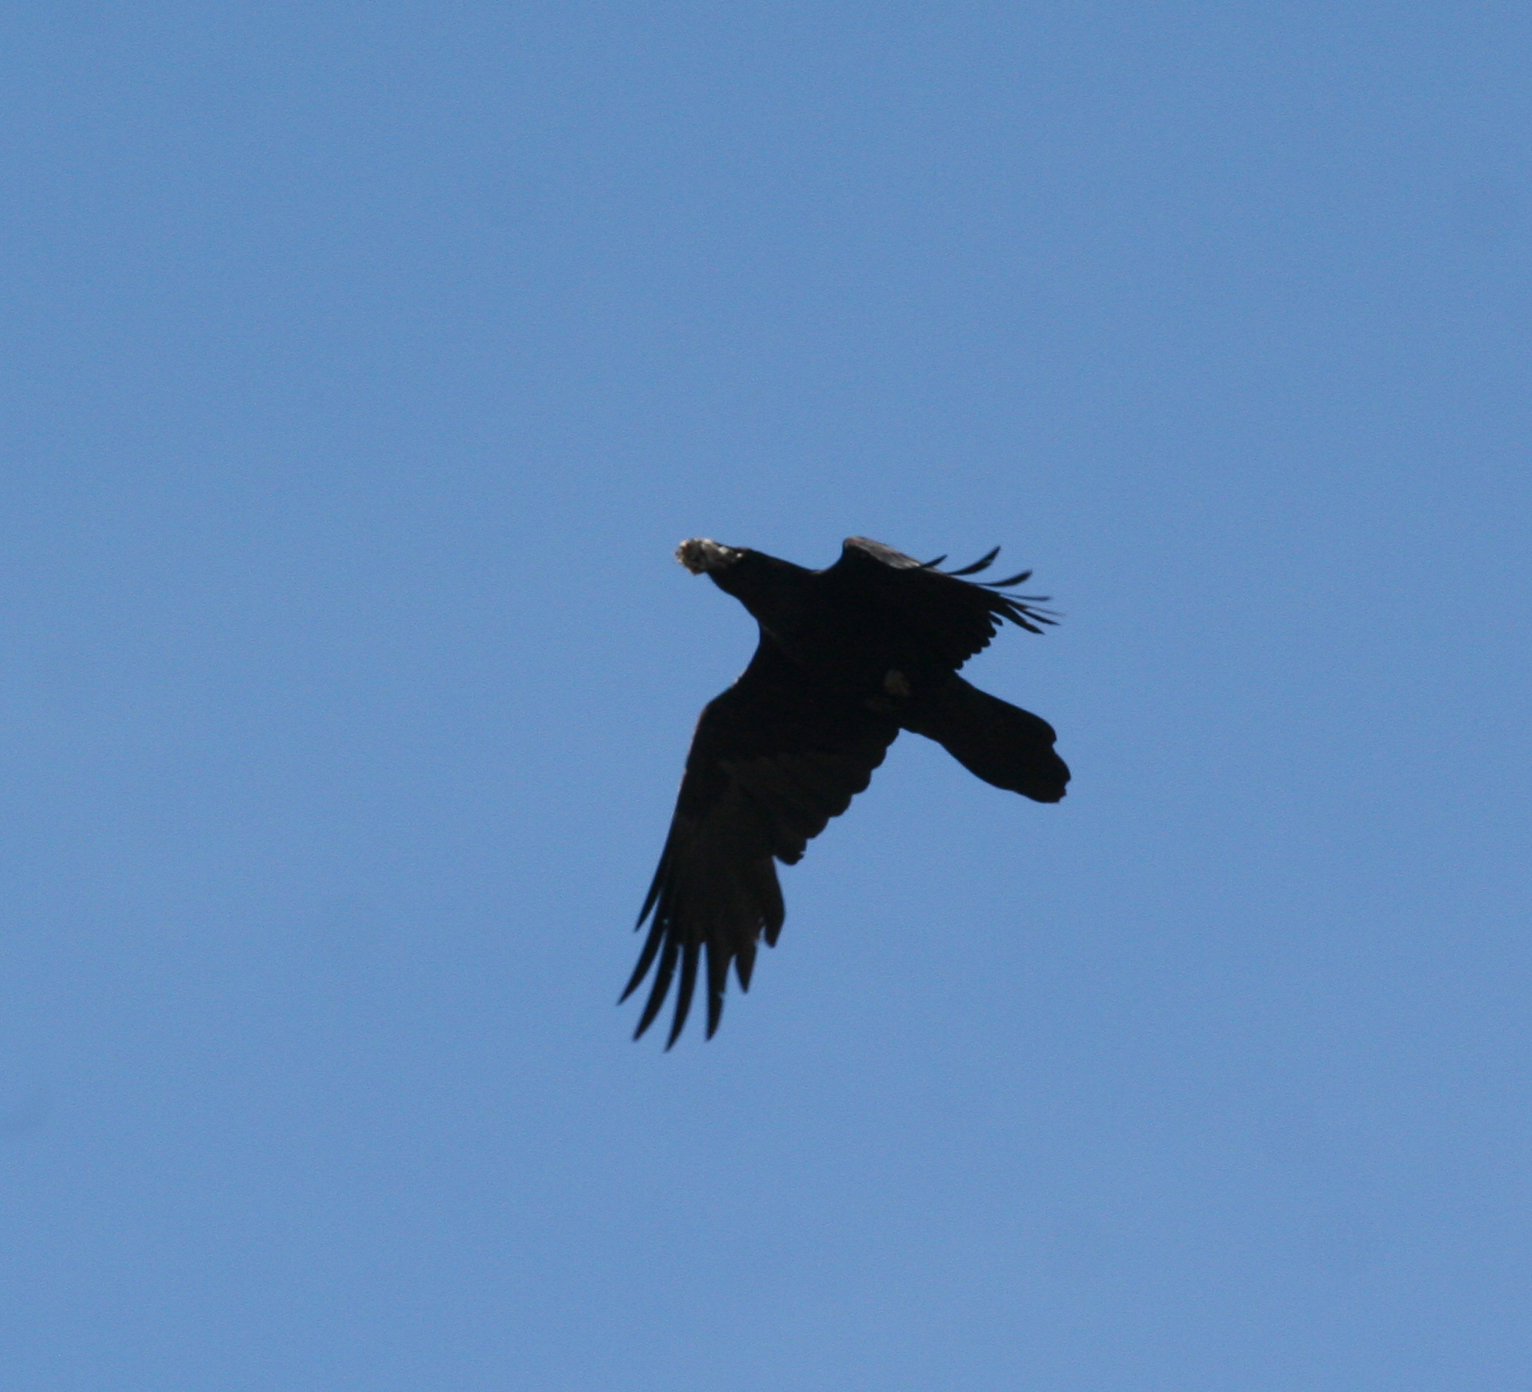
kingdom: Animalia
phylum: Chordata
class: Aves
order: Passeriformes
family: Corvidae
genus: Corvus
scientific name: Corvus corax
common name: Common raven
